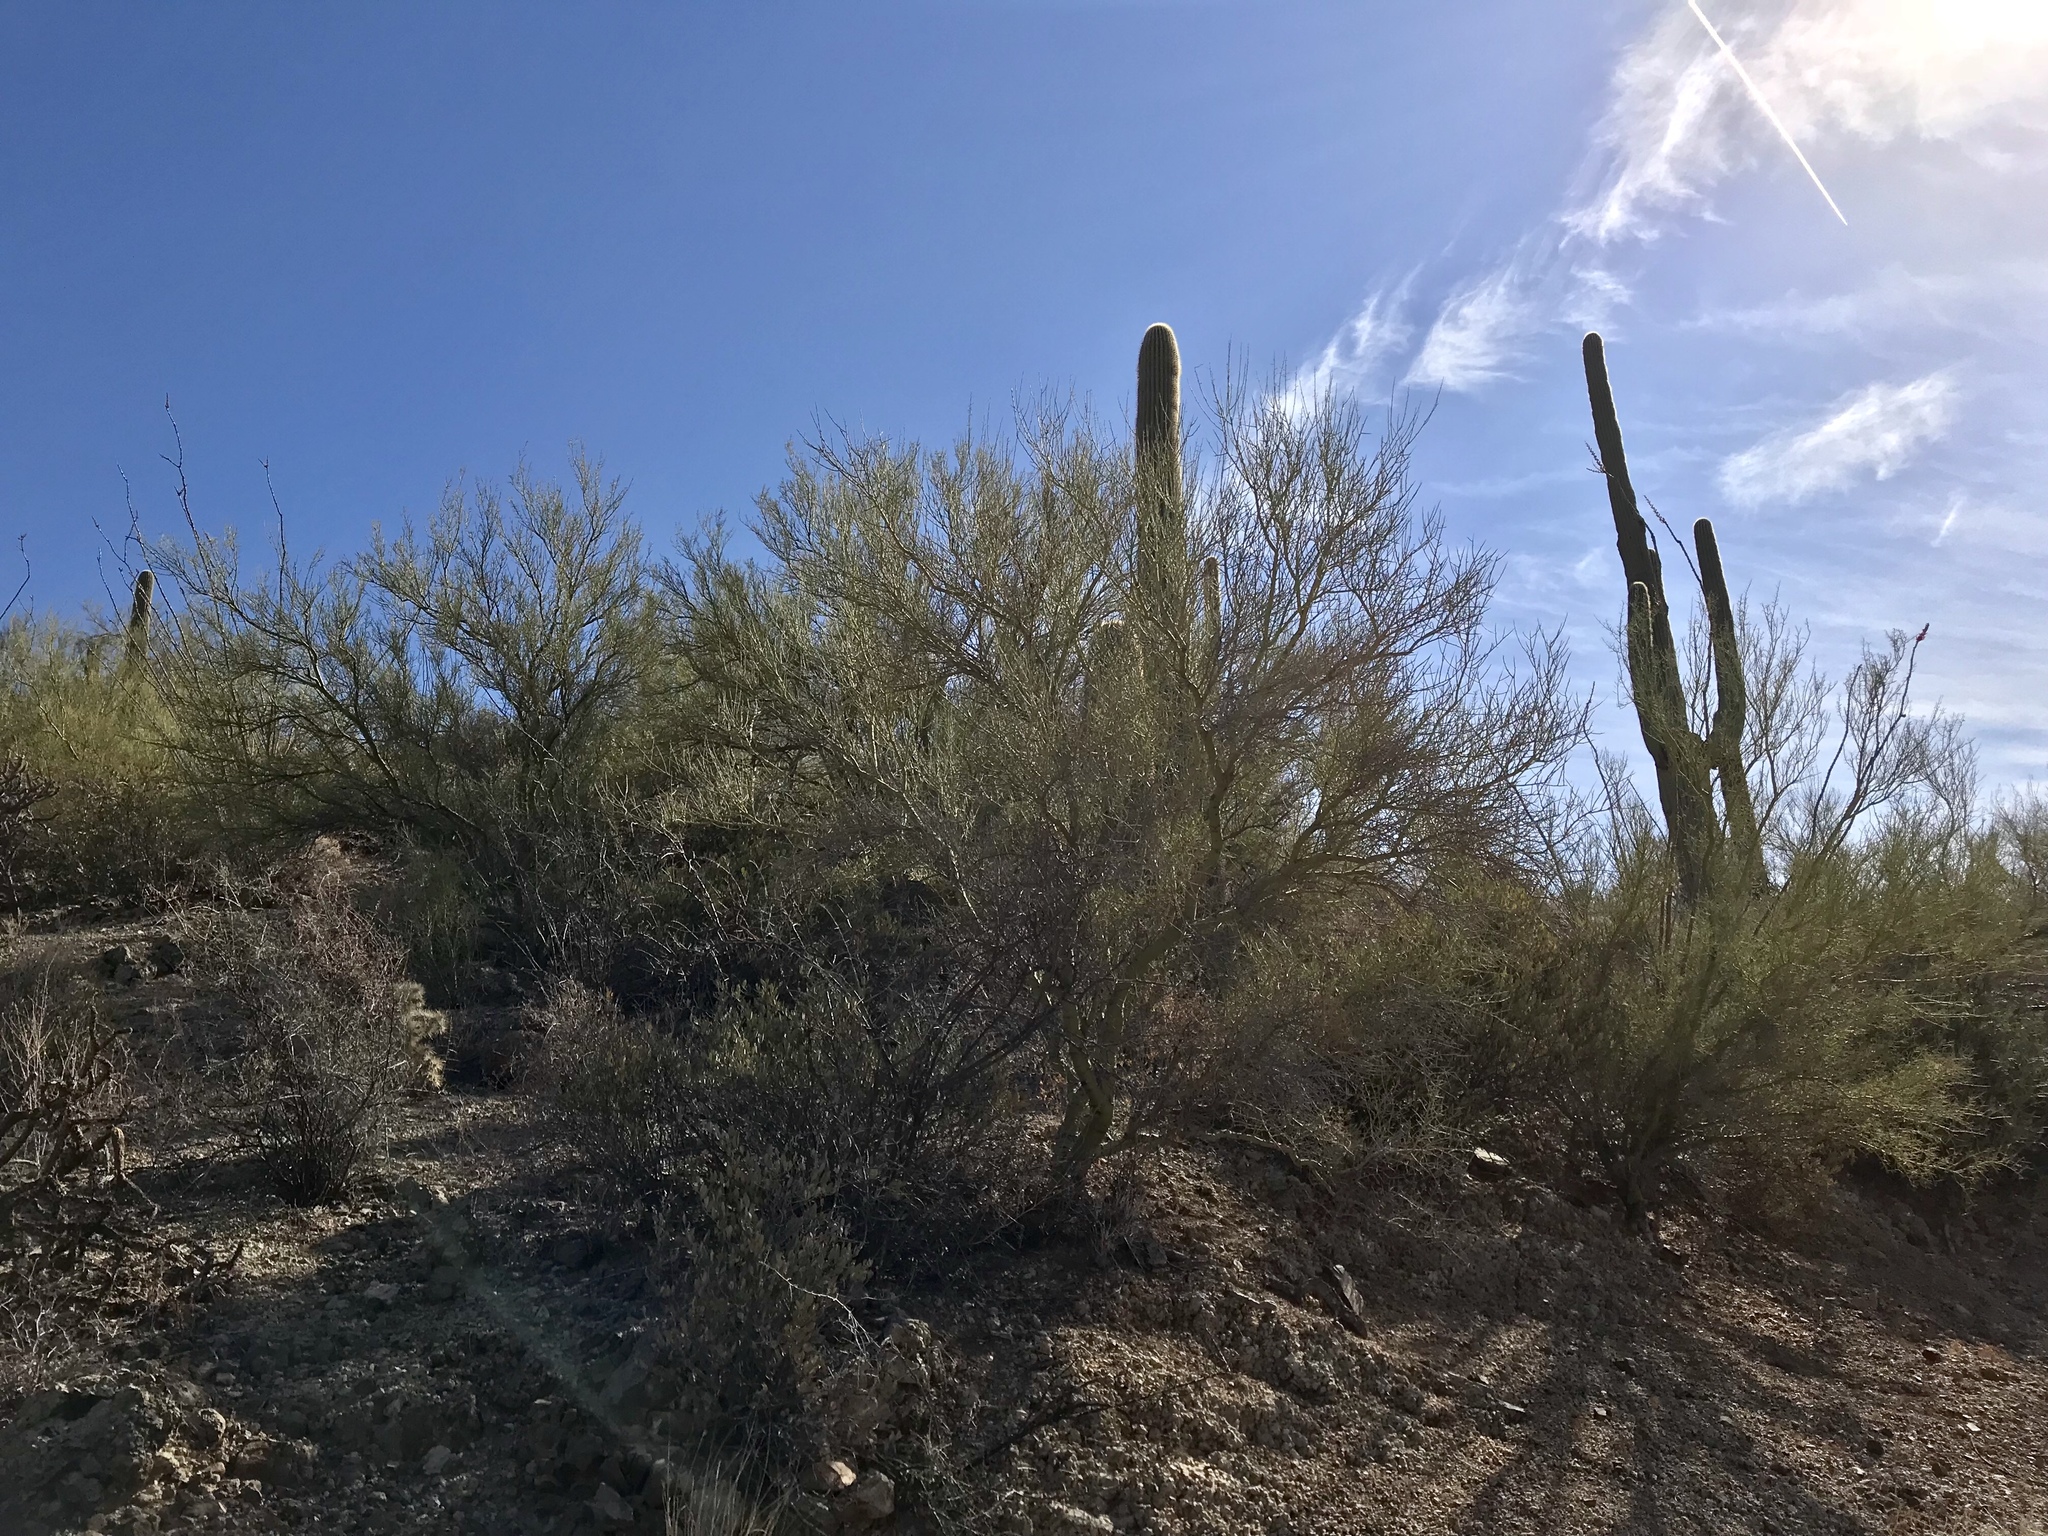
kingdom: Plantae
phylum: Tracheophyta
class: Magnoliopsida
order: Fabales
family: Fabaceae
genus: Parkinsonia
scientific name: Parkinsonia microphylla
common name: Yellow paloverde
